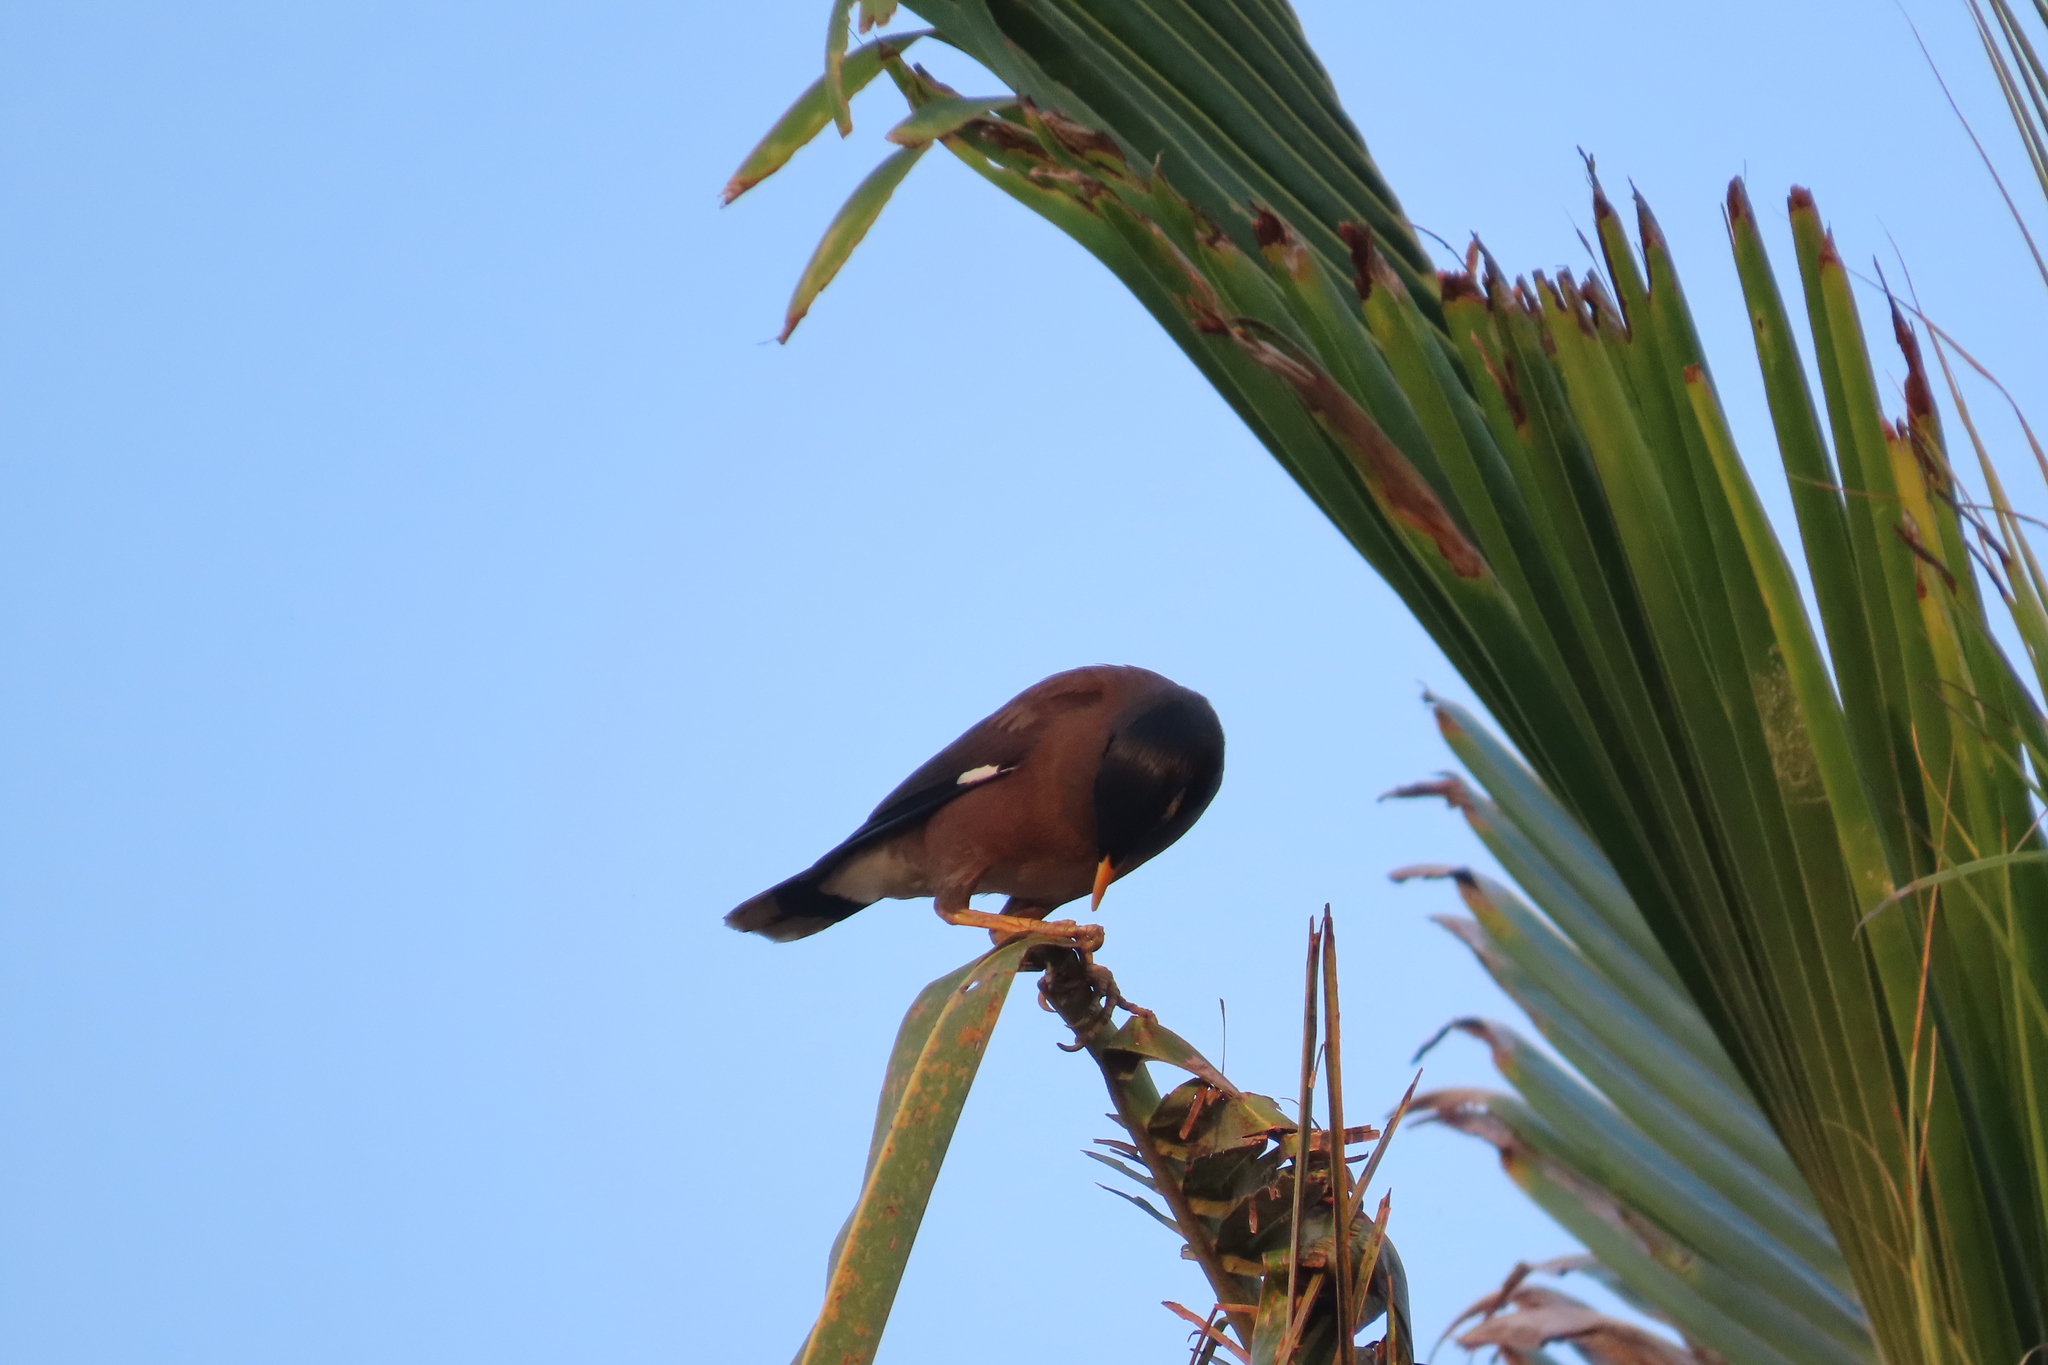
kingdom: Animalia
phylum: Chordata
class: Aves
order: Passeriformes
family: Sturnidae
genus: Acridotheres
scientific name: Acridotheres tristis
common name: Common myna
